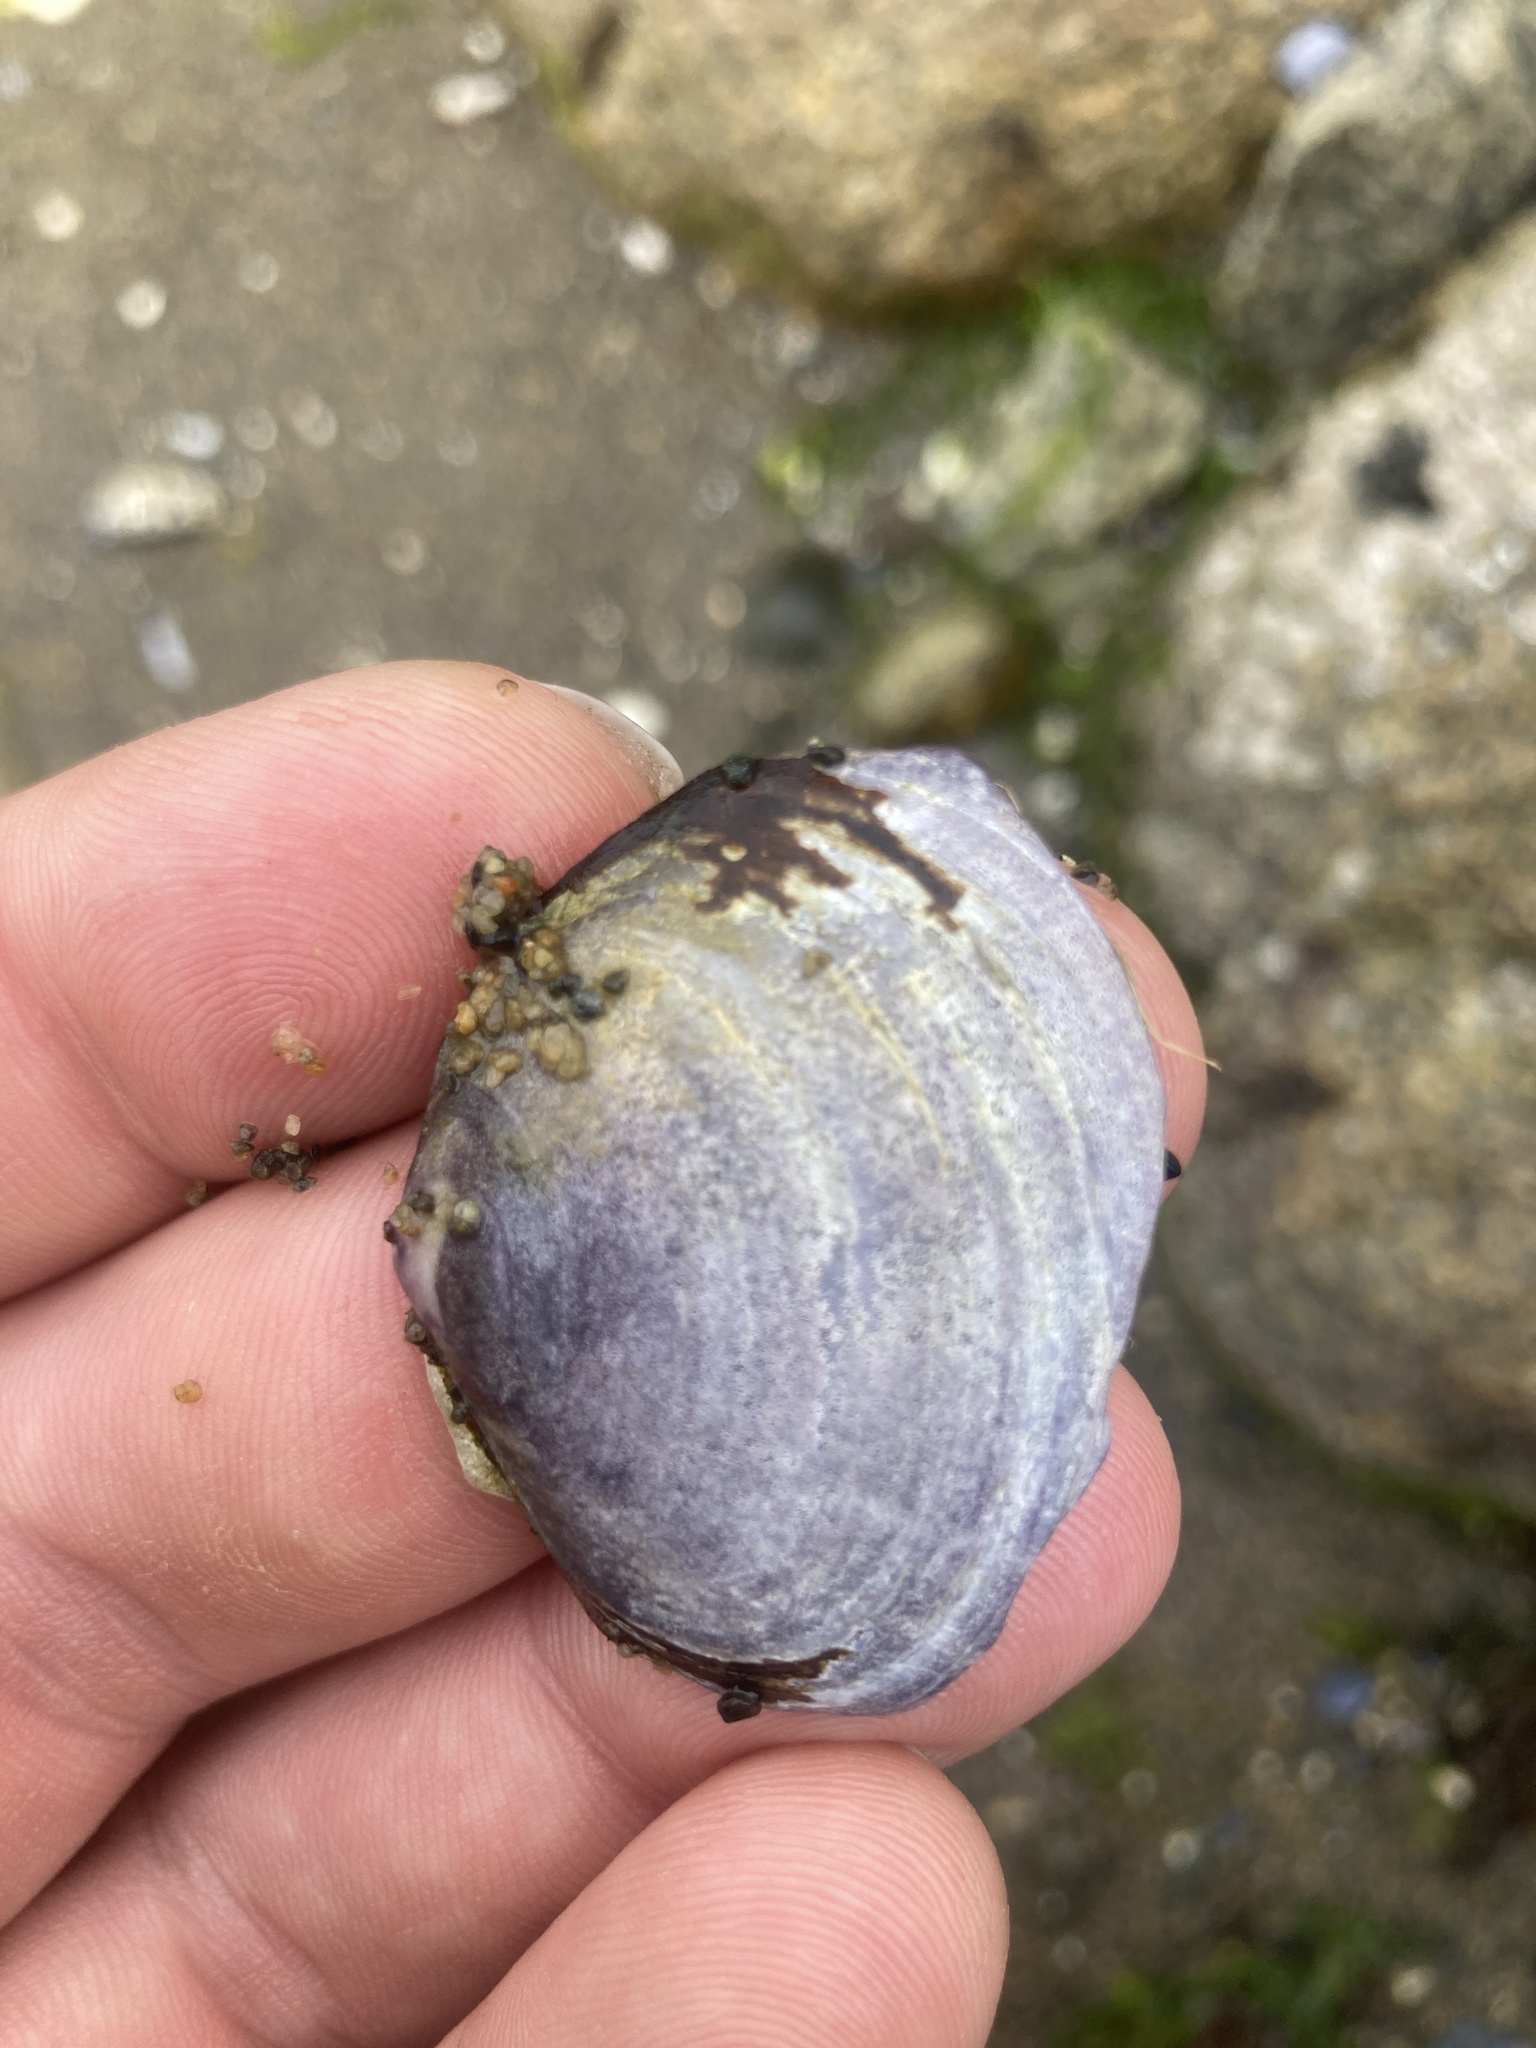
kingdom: Animalia
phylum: Mollusca
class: Bivalvia
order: Cardiida
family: Psammobiidae
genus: Nuttallia
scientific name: Nuttallia obscurata
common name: Purple mahogany-clam
